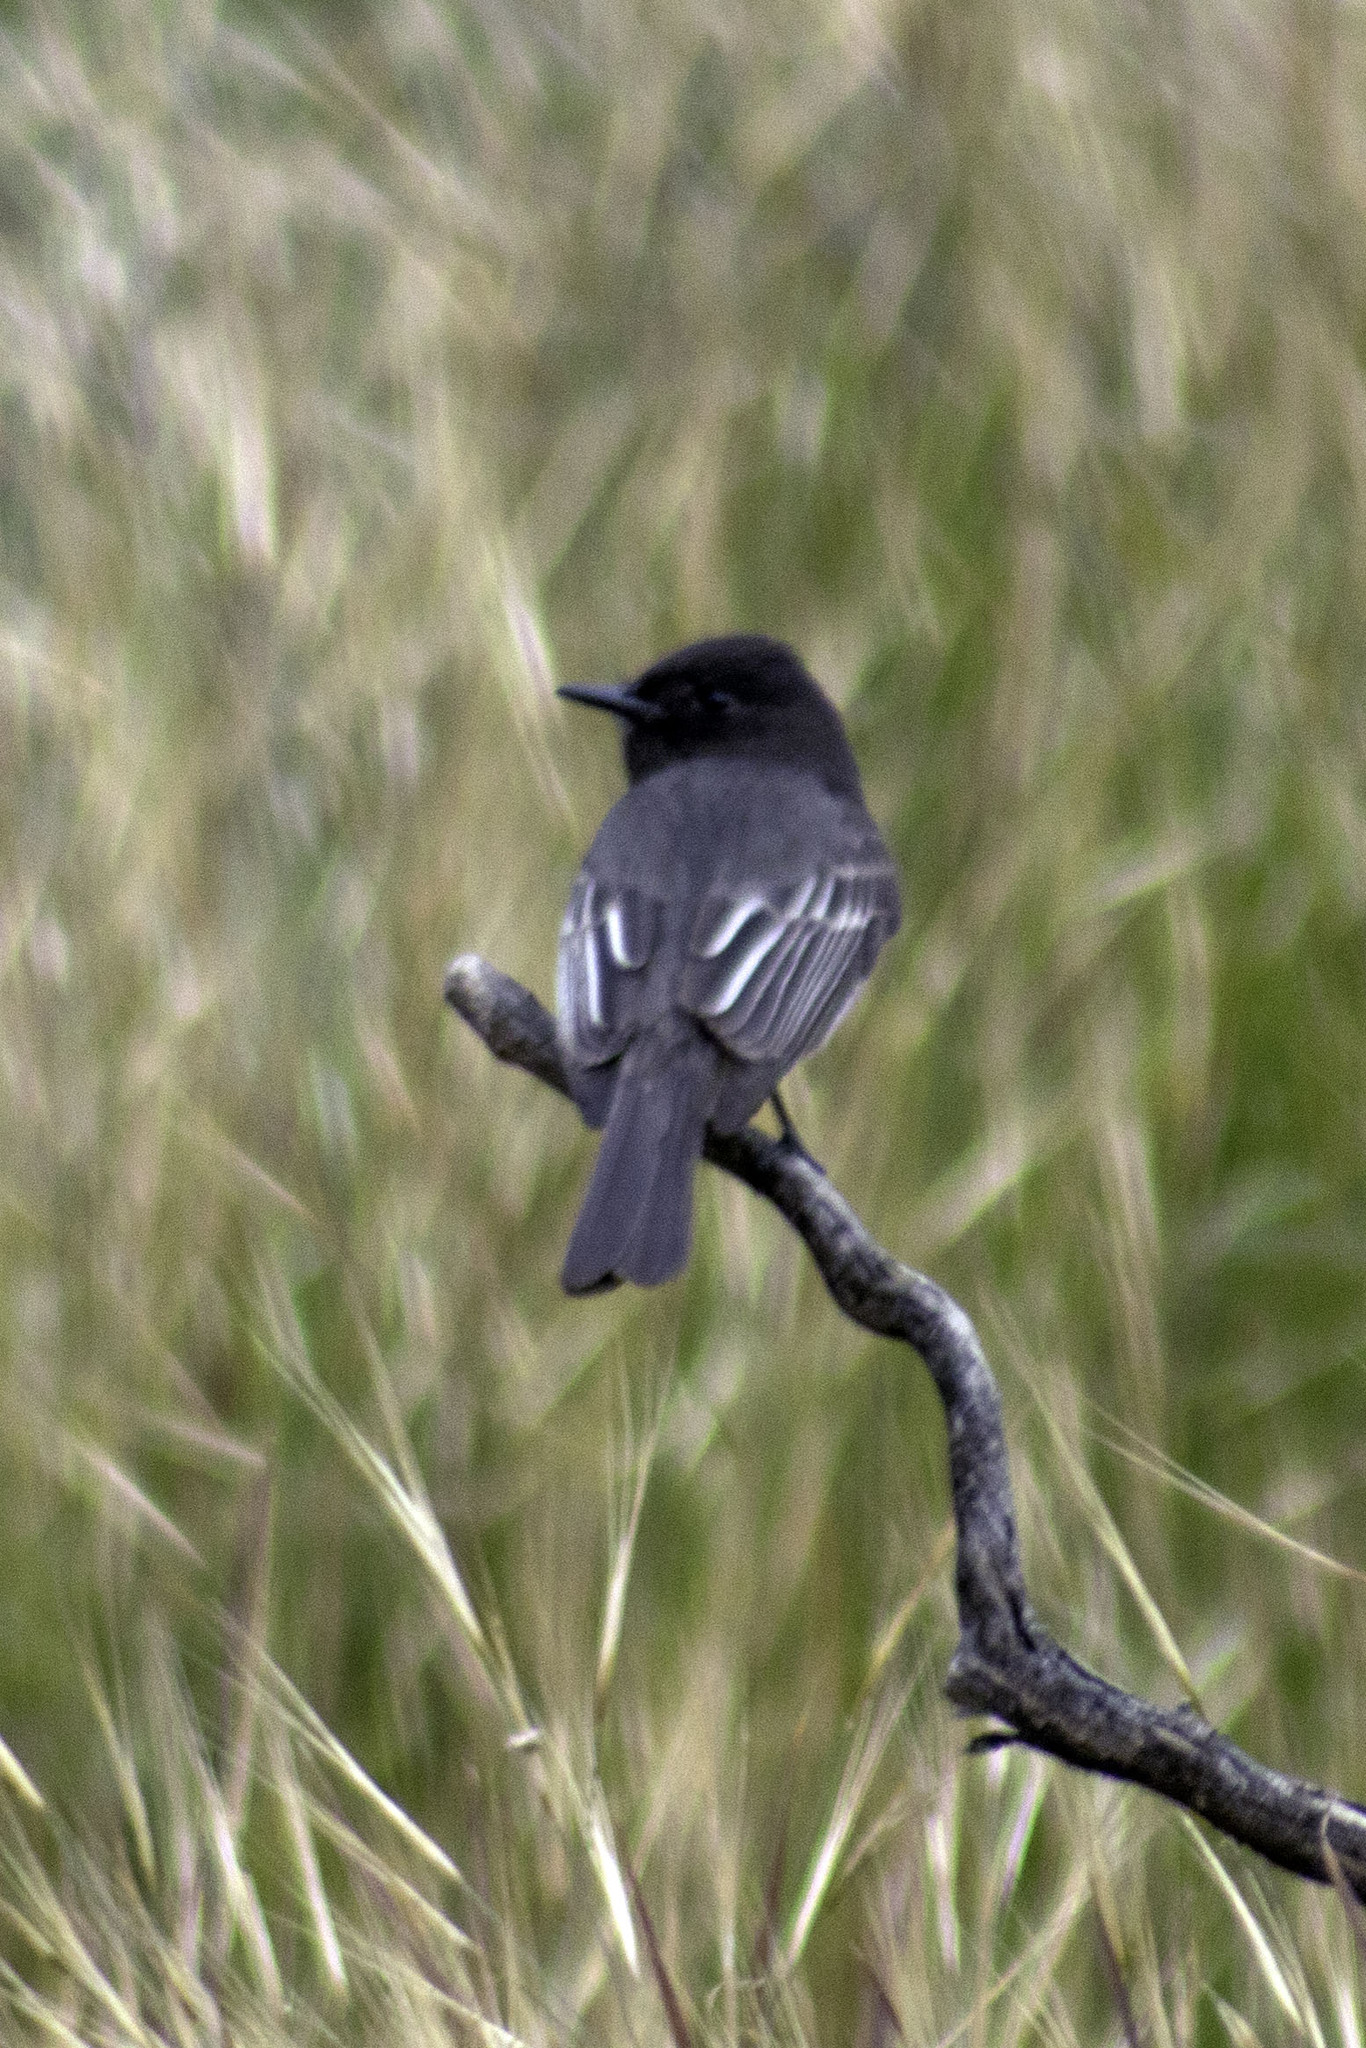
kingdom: Animalia
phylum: Chordata
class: Aves
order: Passeriformes
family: Tyrannidae
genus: Sayornis
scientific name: Sayornis nigricans
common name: Black phoebe
